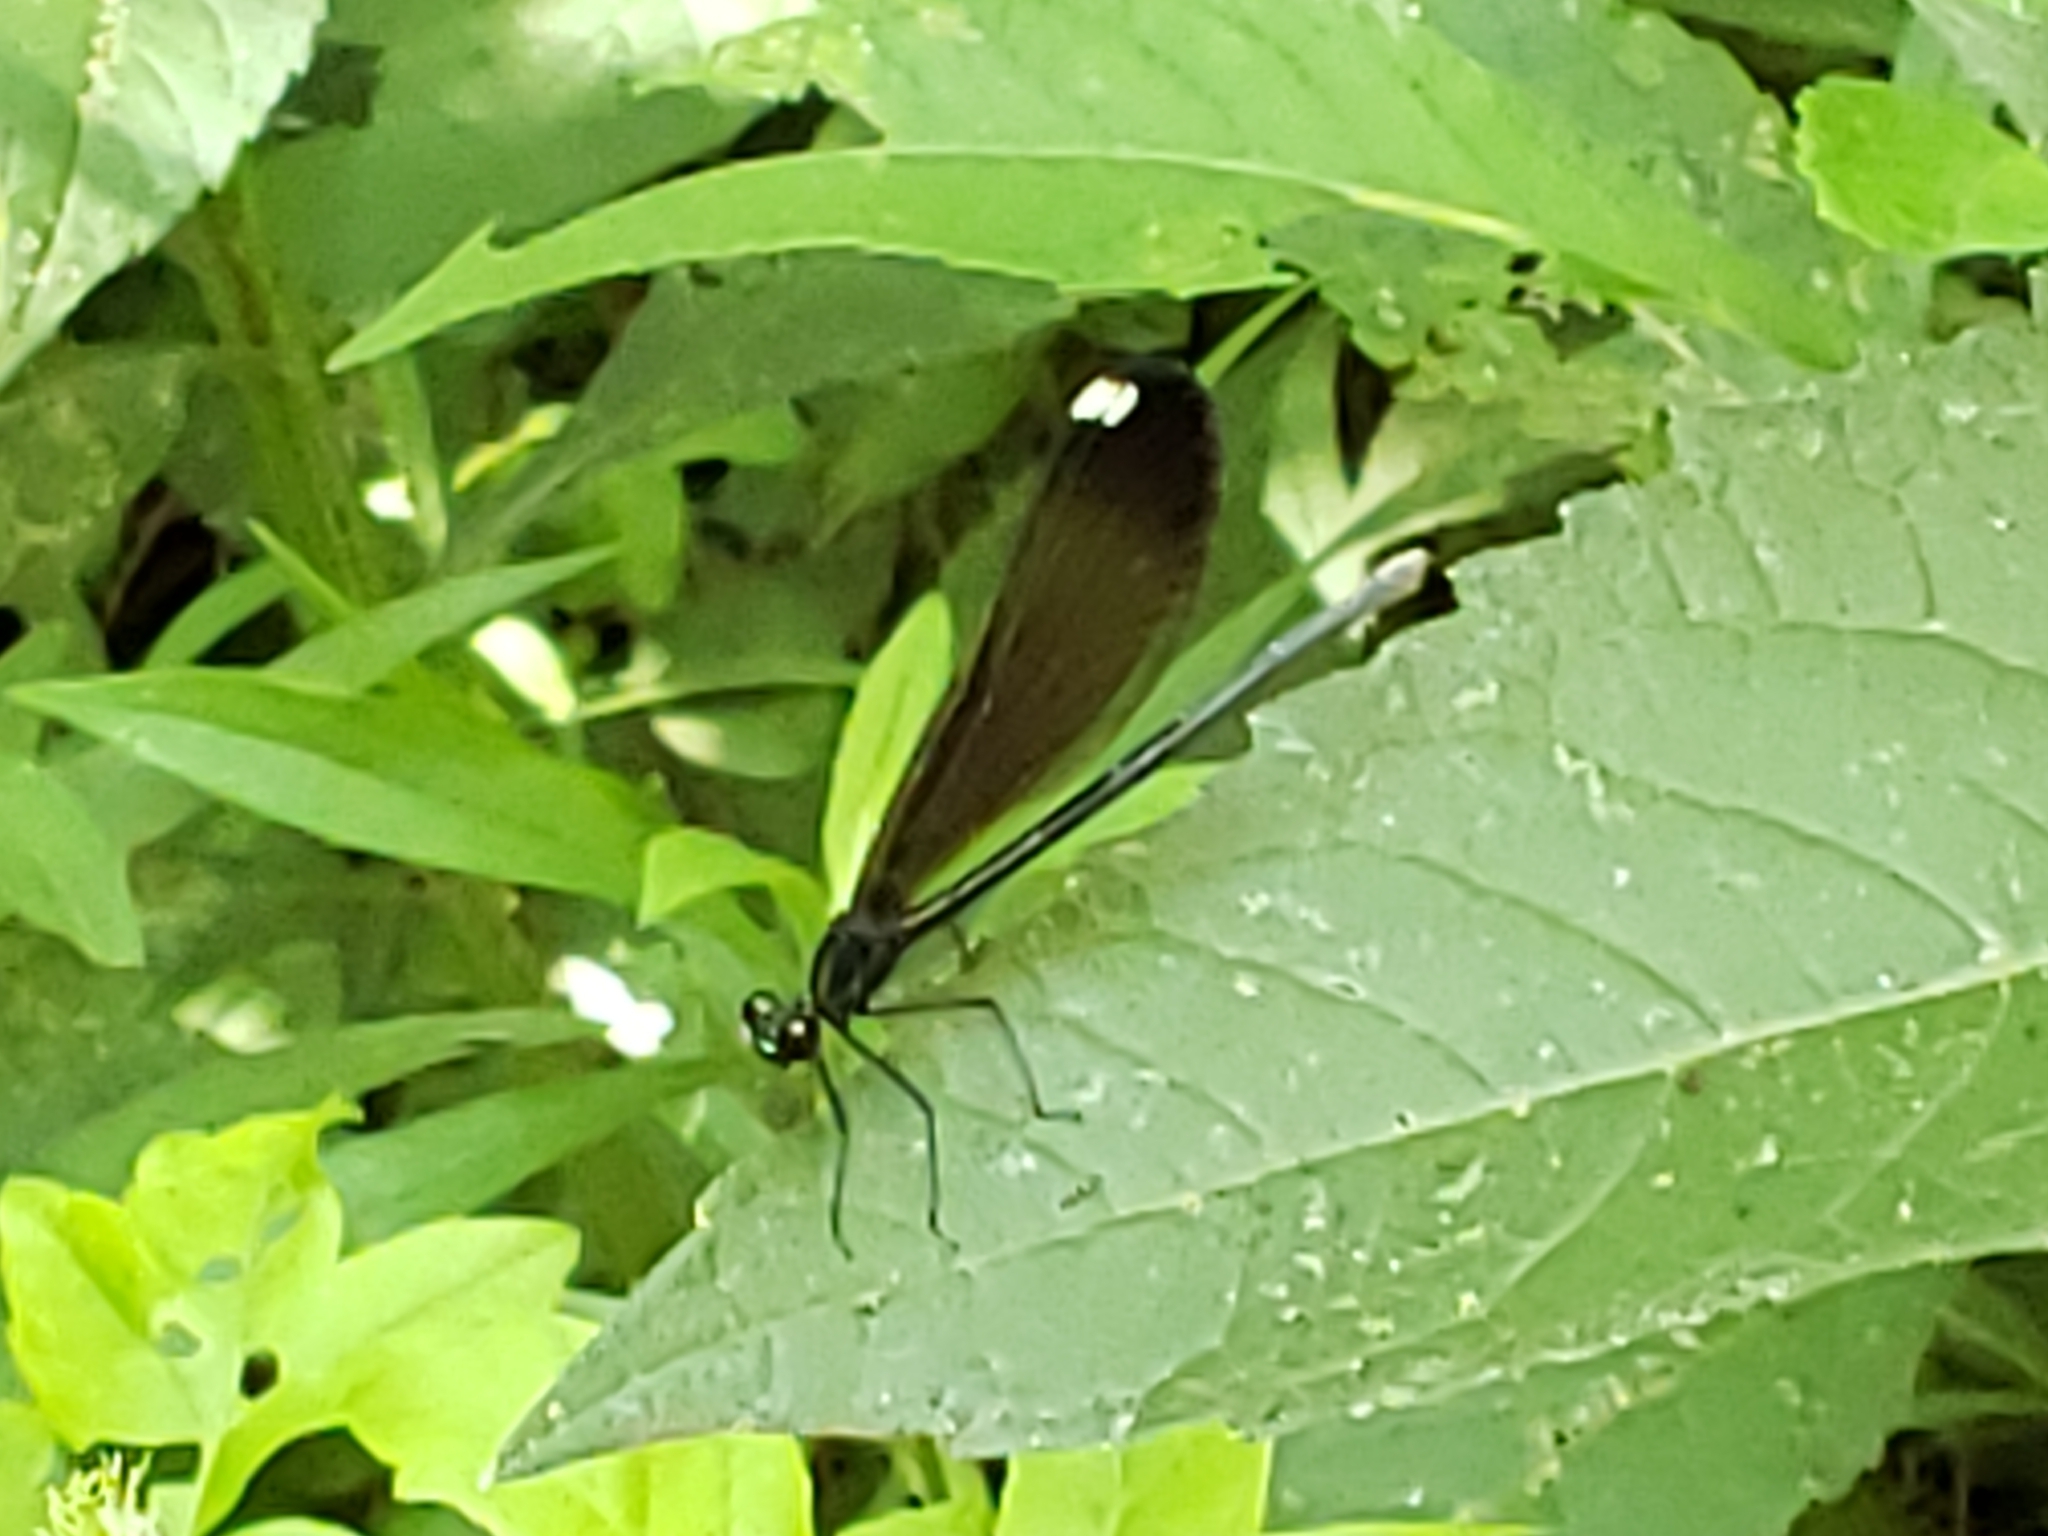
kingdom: Animalia
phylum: Arthropoda
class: Insecta
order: Odonata
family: Calopterygidae
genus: Calopteryx
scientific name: Calopteryx maculata
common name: Ebony jewelwing
